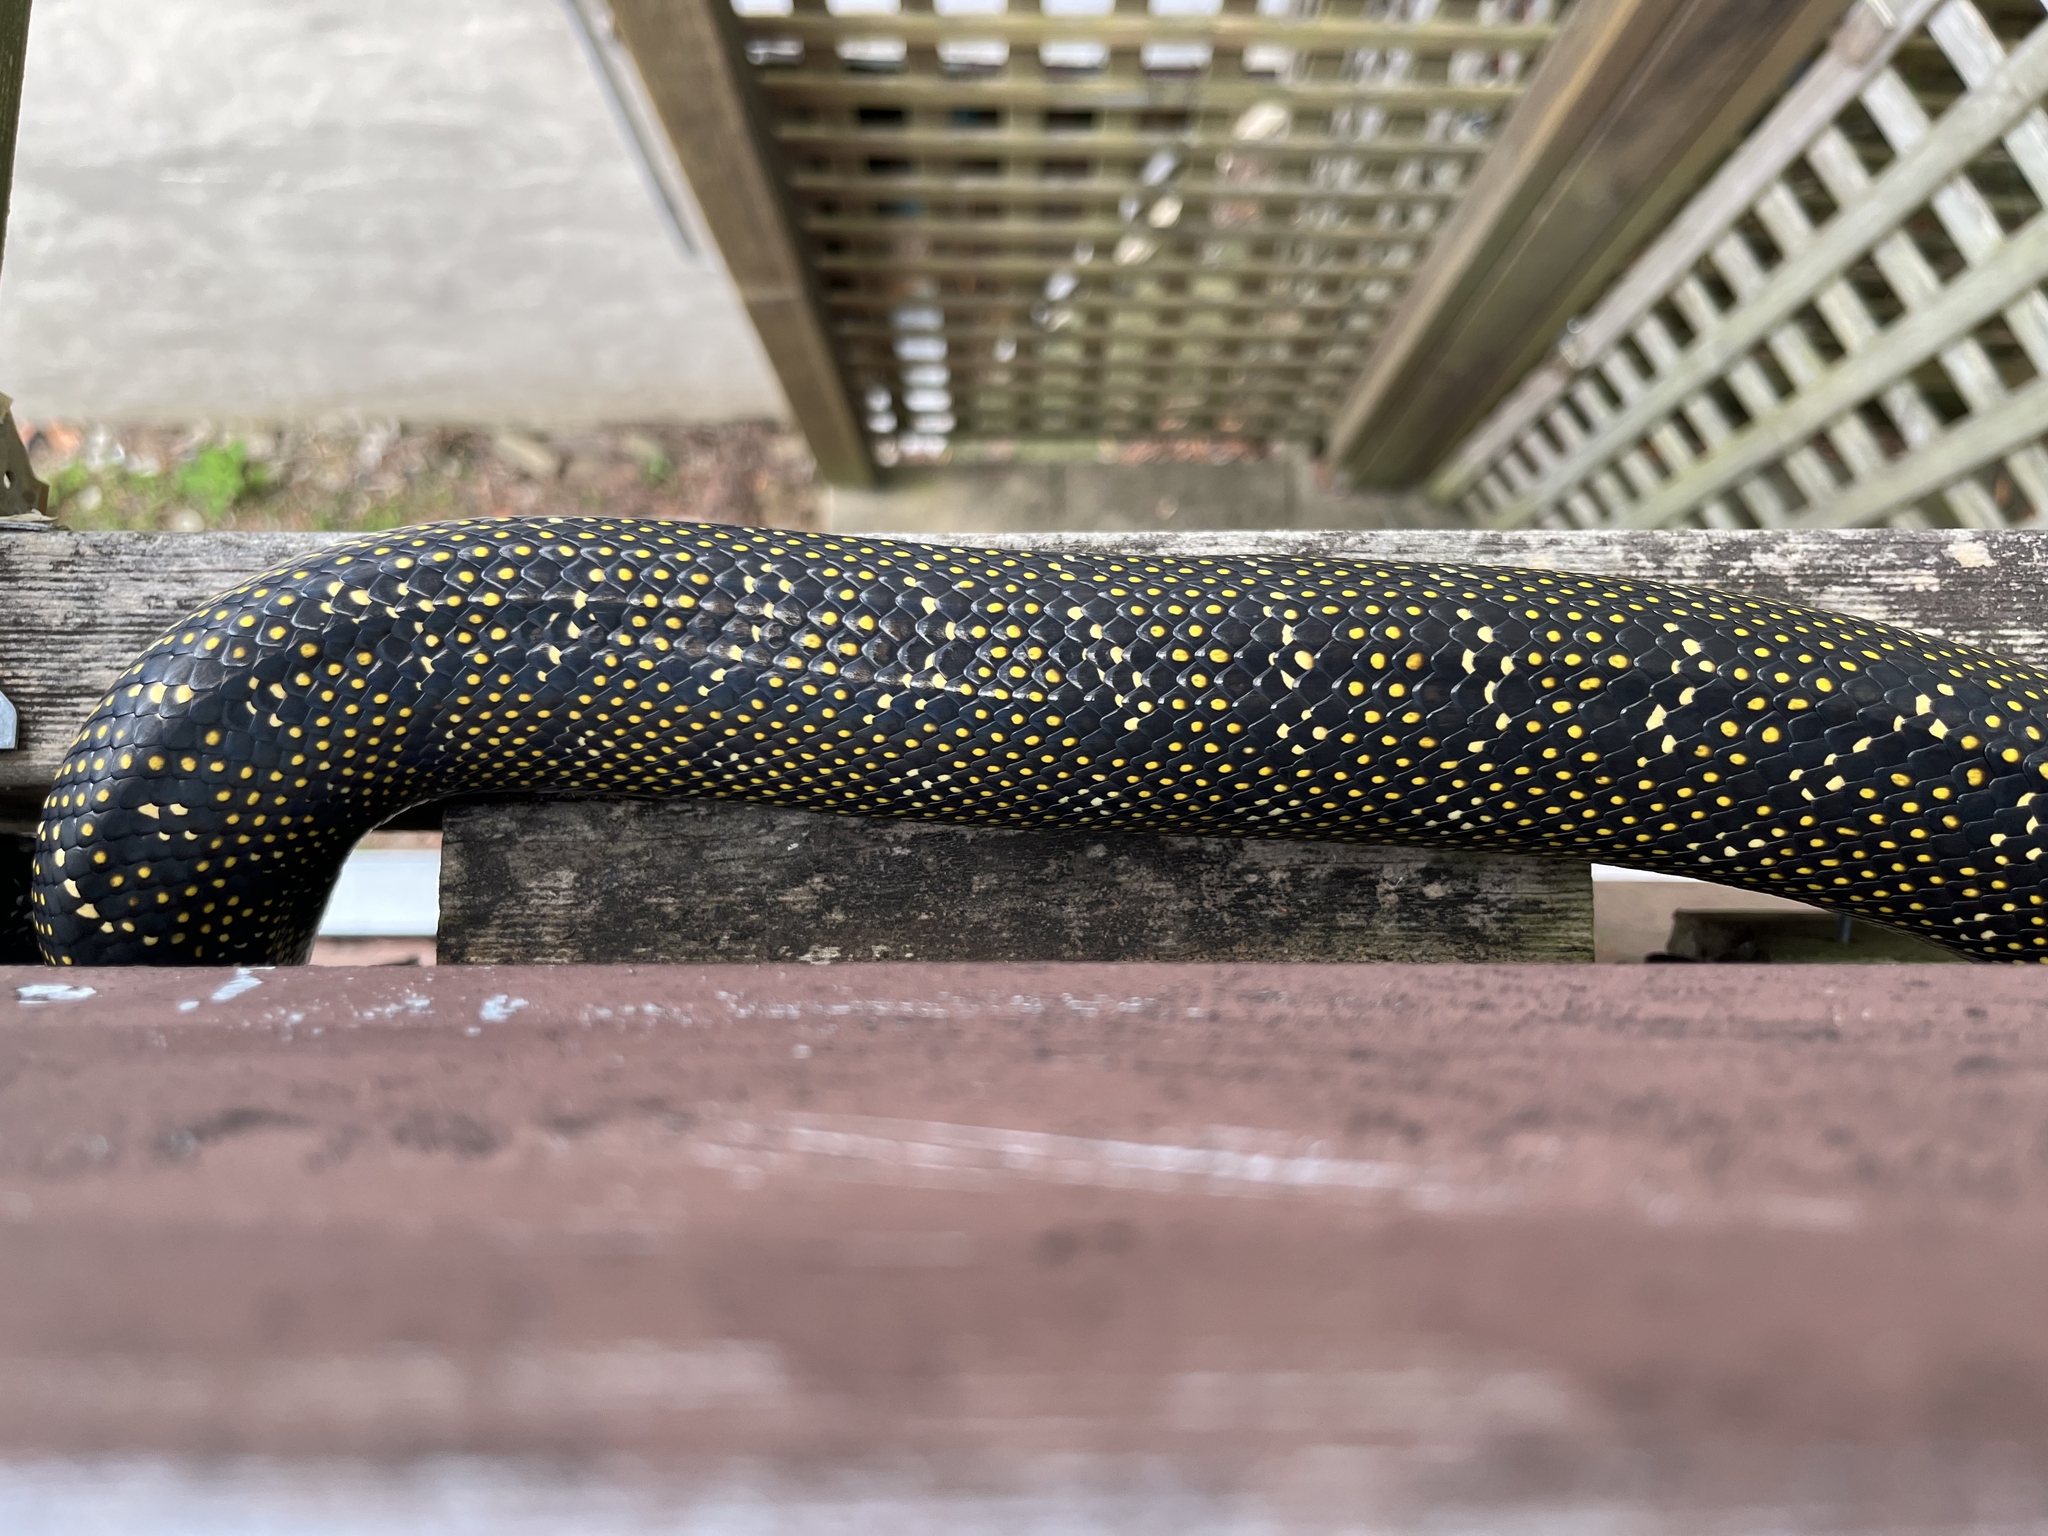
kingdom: Animalia
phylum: Chordata
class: Squamata
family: Pythonidae
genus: Morelia
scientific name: Morelia spilota
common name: Carpet python
